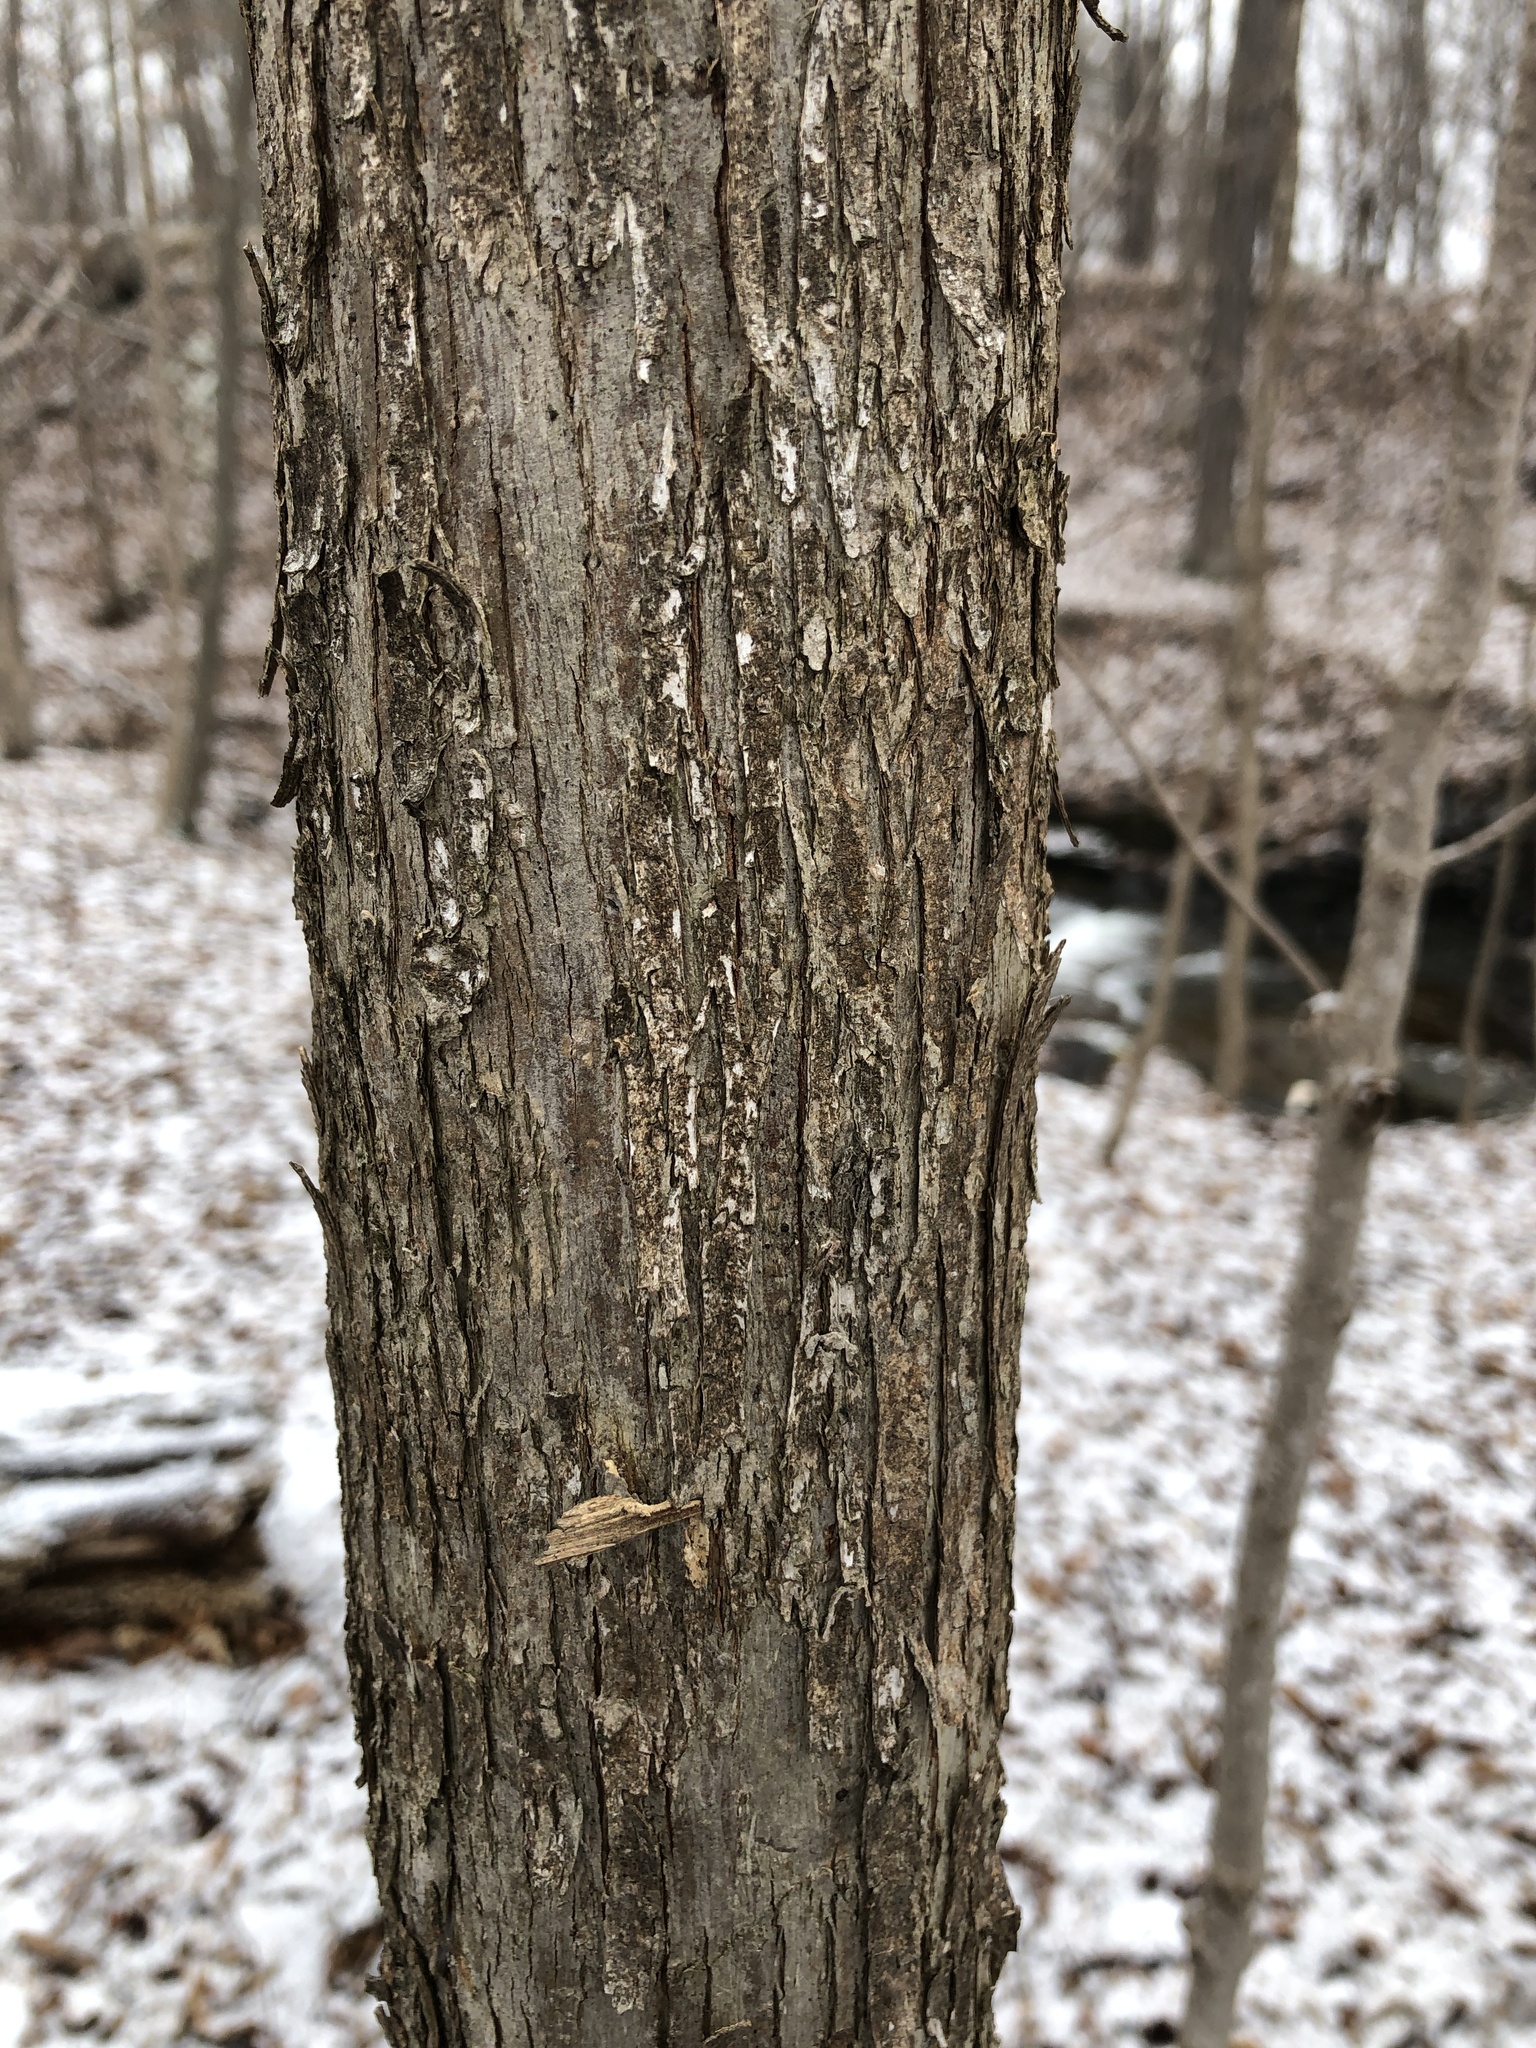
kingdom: Plantae
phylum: Tracheophyta
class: Magnoliopsida
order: Fagales
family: Betulaceae
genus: Ostrya
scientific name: Ostrya virginiana
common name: Ironwood
